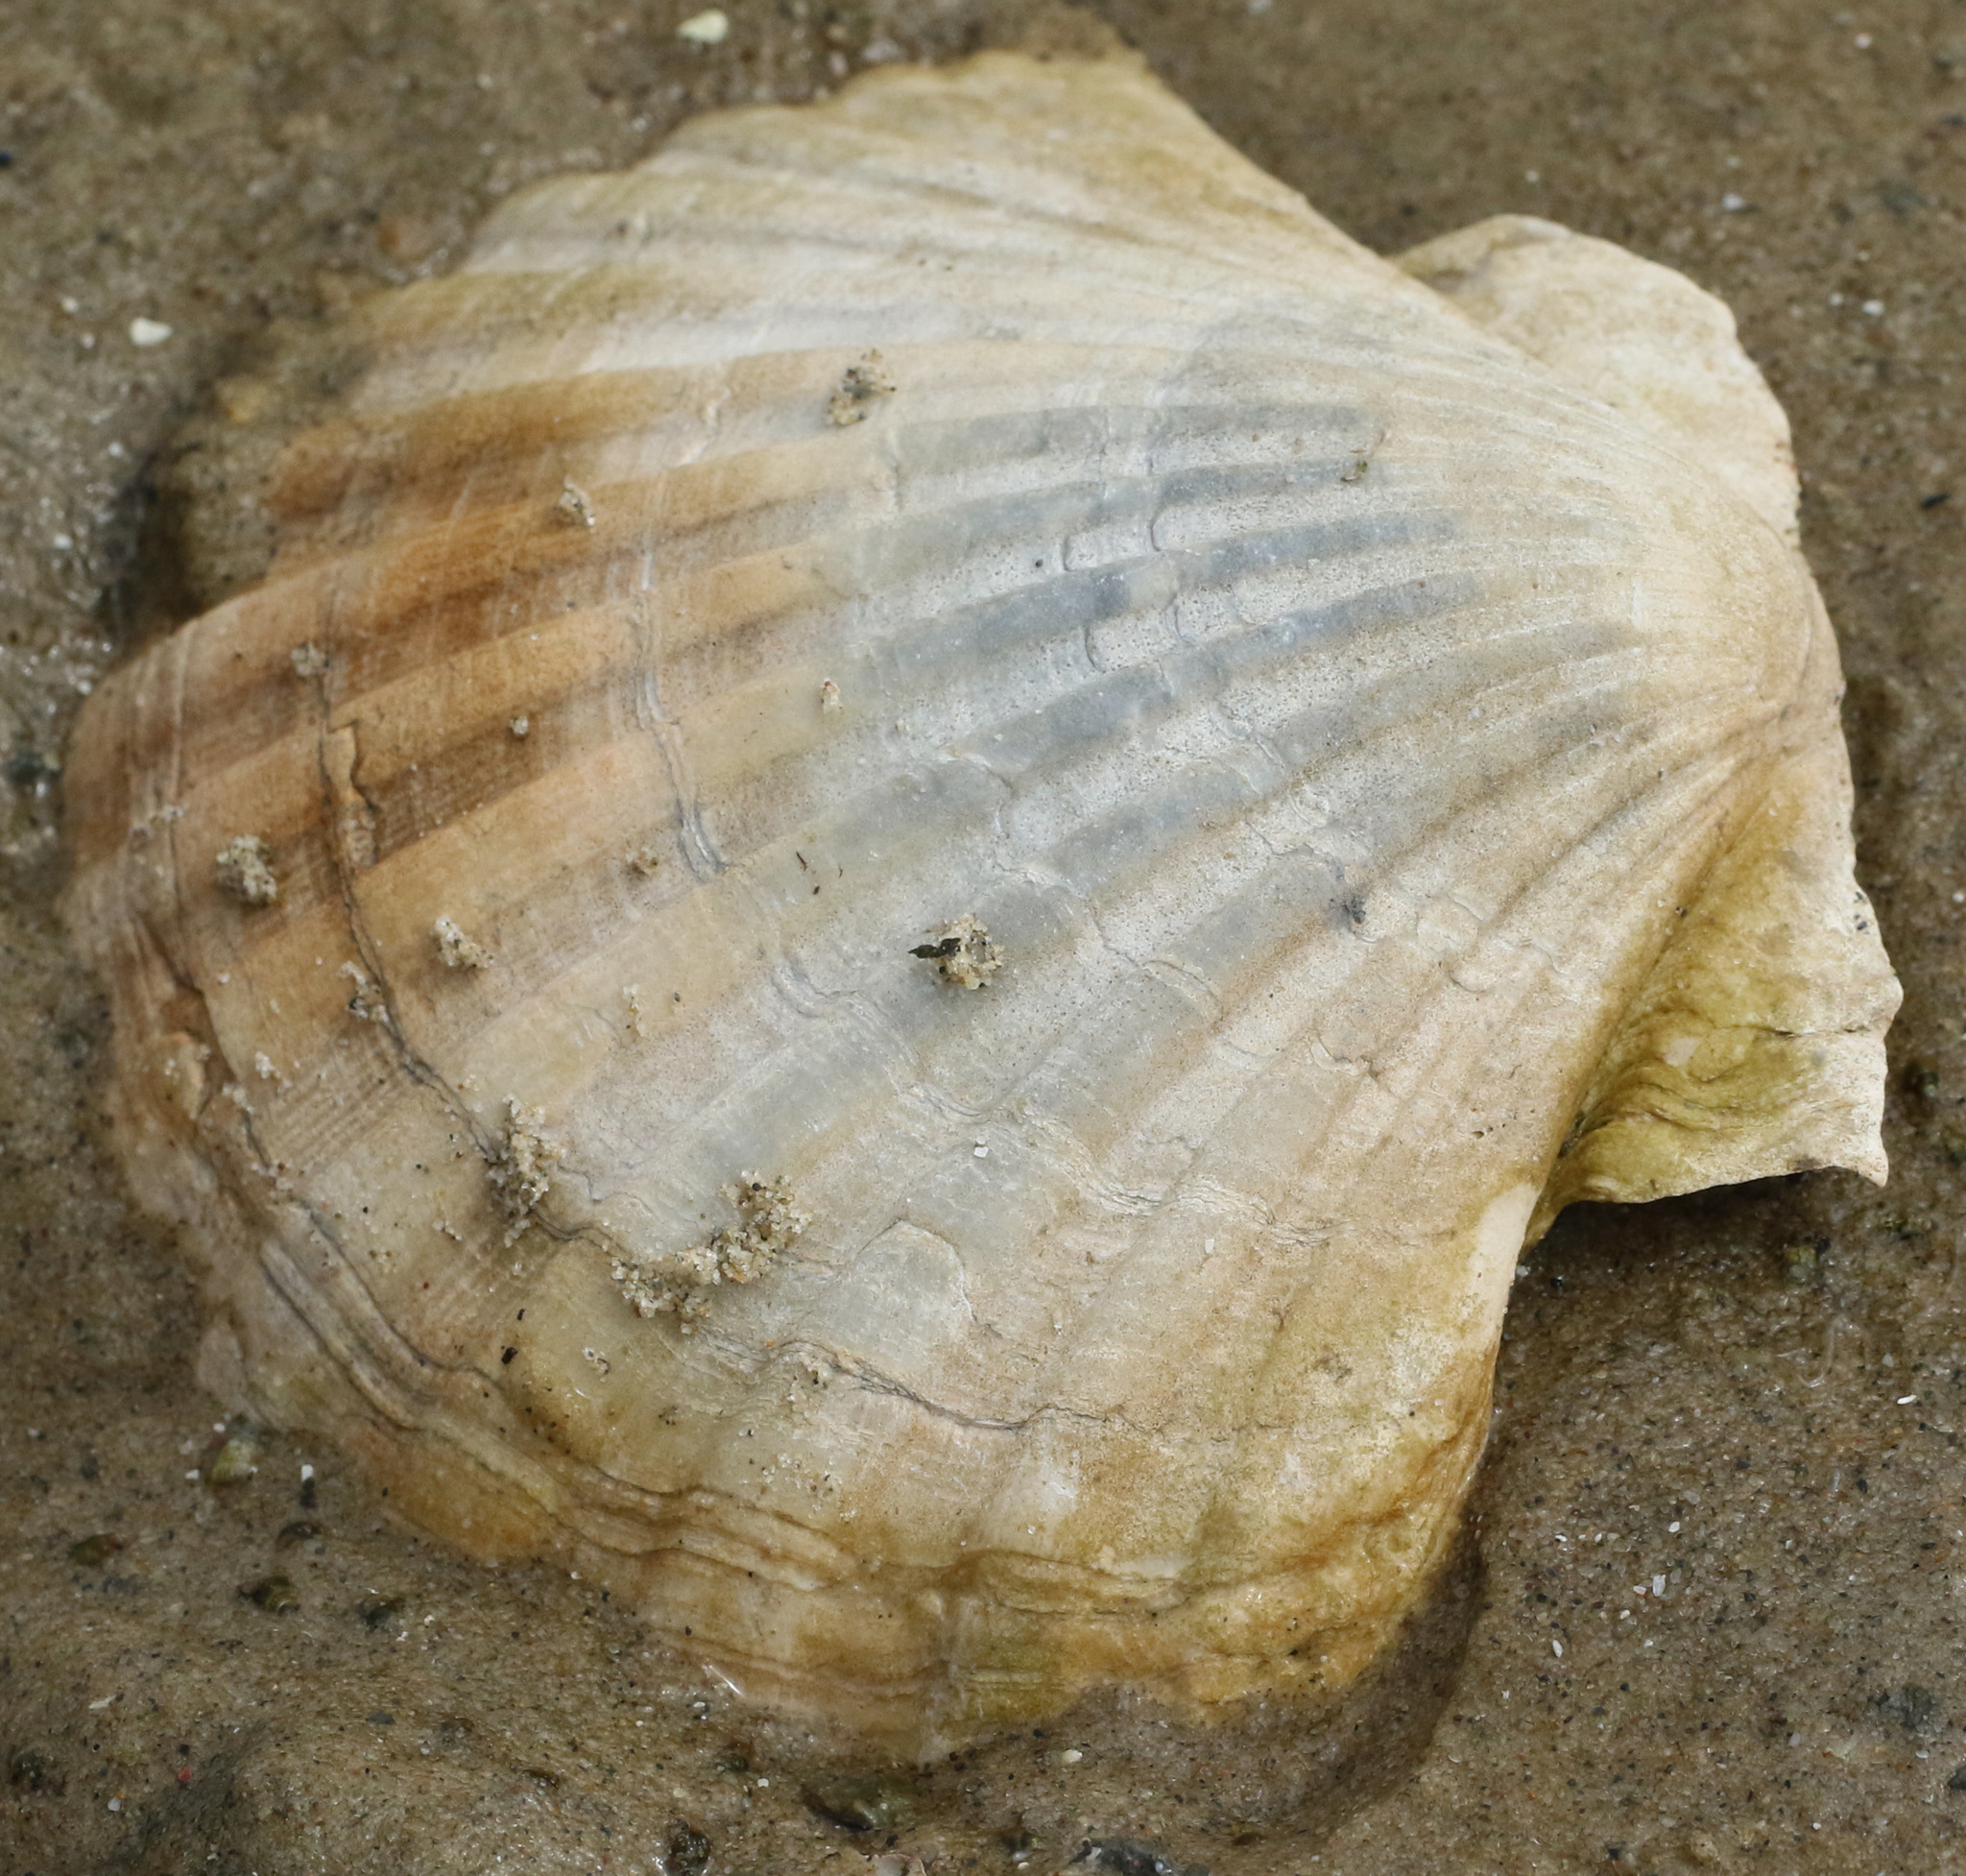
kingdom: Animalia
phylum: Mollusca
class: Bivalvia
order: Pectinida
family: Pectinidae
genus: Pecten
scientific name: Pecten maximus
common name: Great scallop
